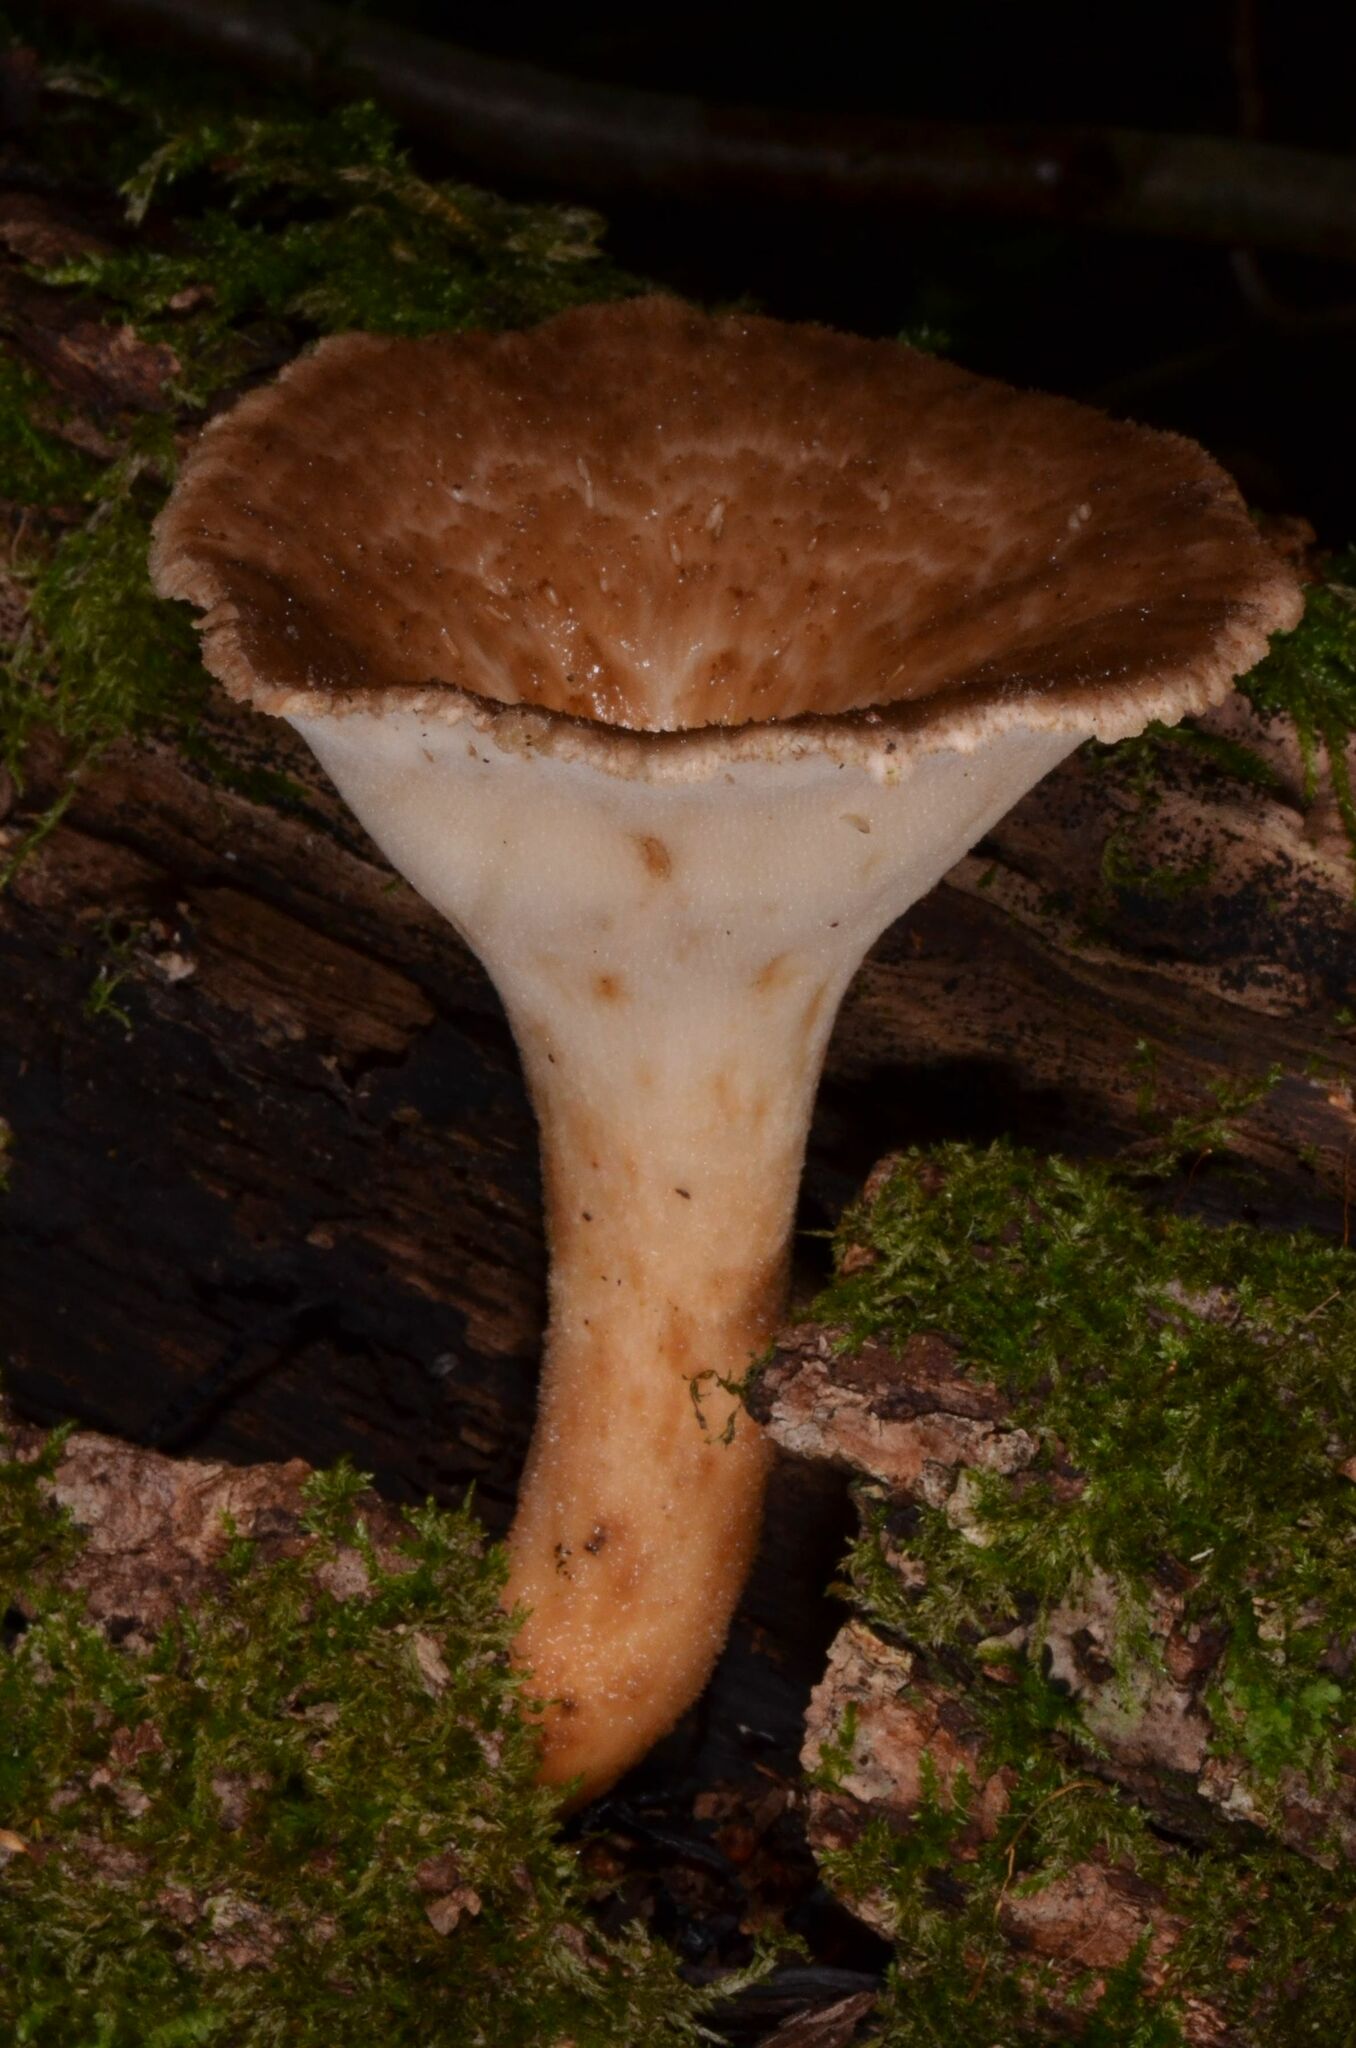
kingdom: Fungi
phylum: Basidiomycota
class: Agaricomycetes
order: Polyporales
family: Polyporaceae
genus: Polyporus
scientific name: Polyporus tuberaster
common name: Tuberous polypore
